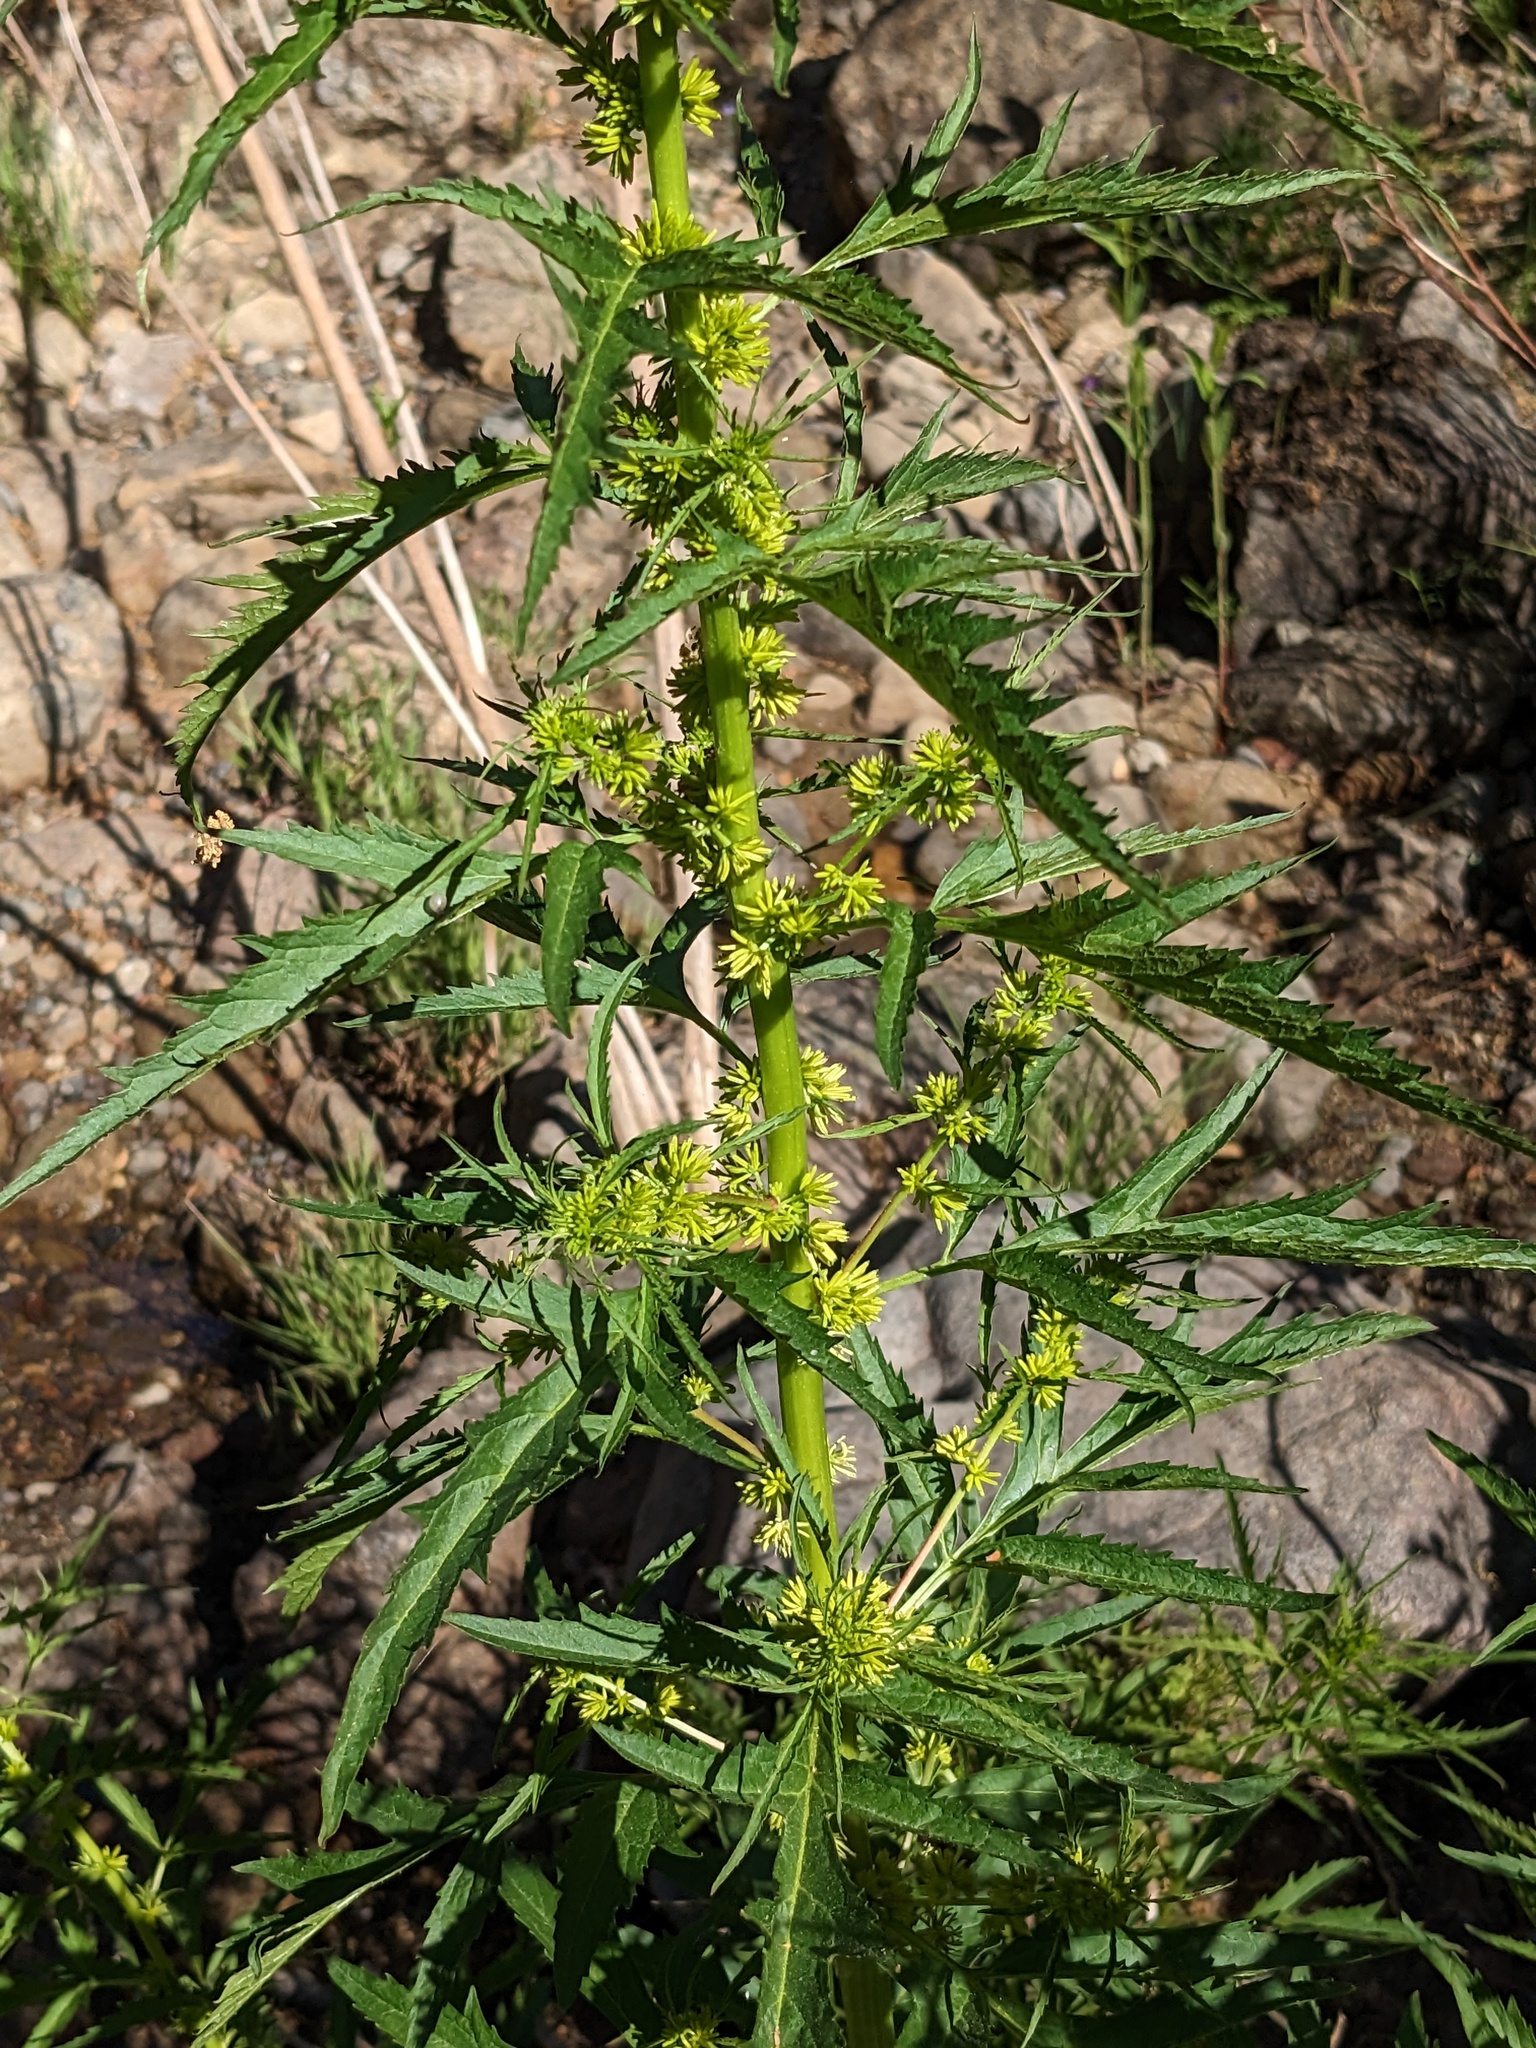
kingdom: Plantae
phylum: Tracheophyta
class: Magnoliopsida
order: Cucurbitales
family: Datiscaceae
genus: Datisca
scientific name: Datisca glomerata
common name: Durango-root
